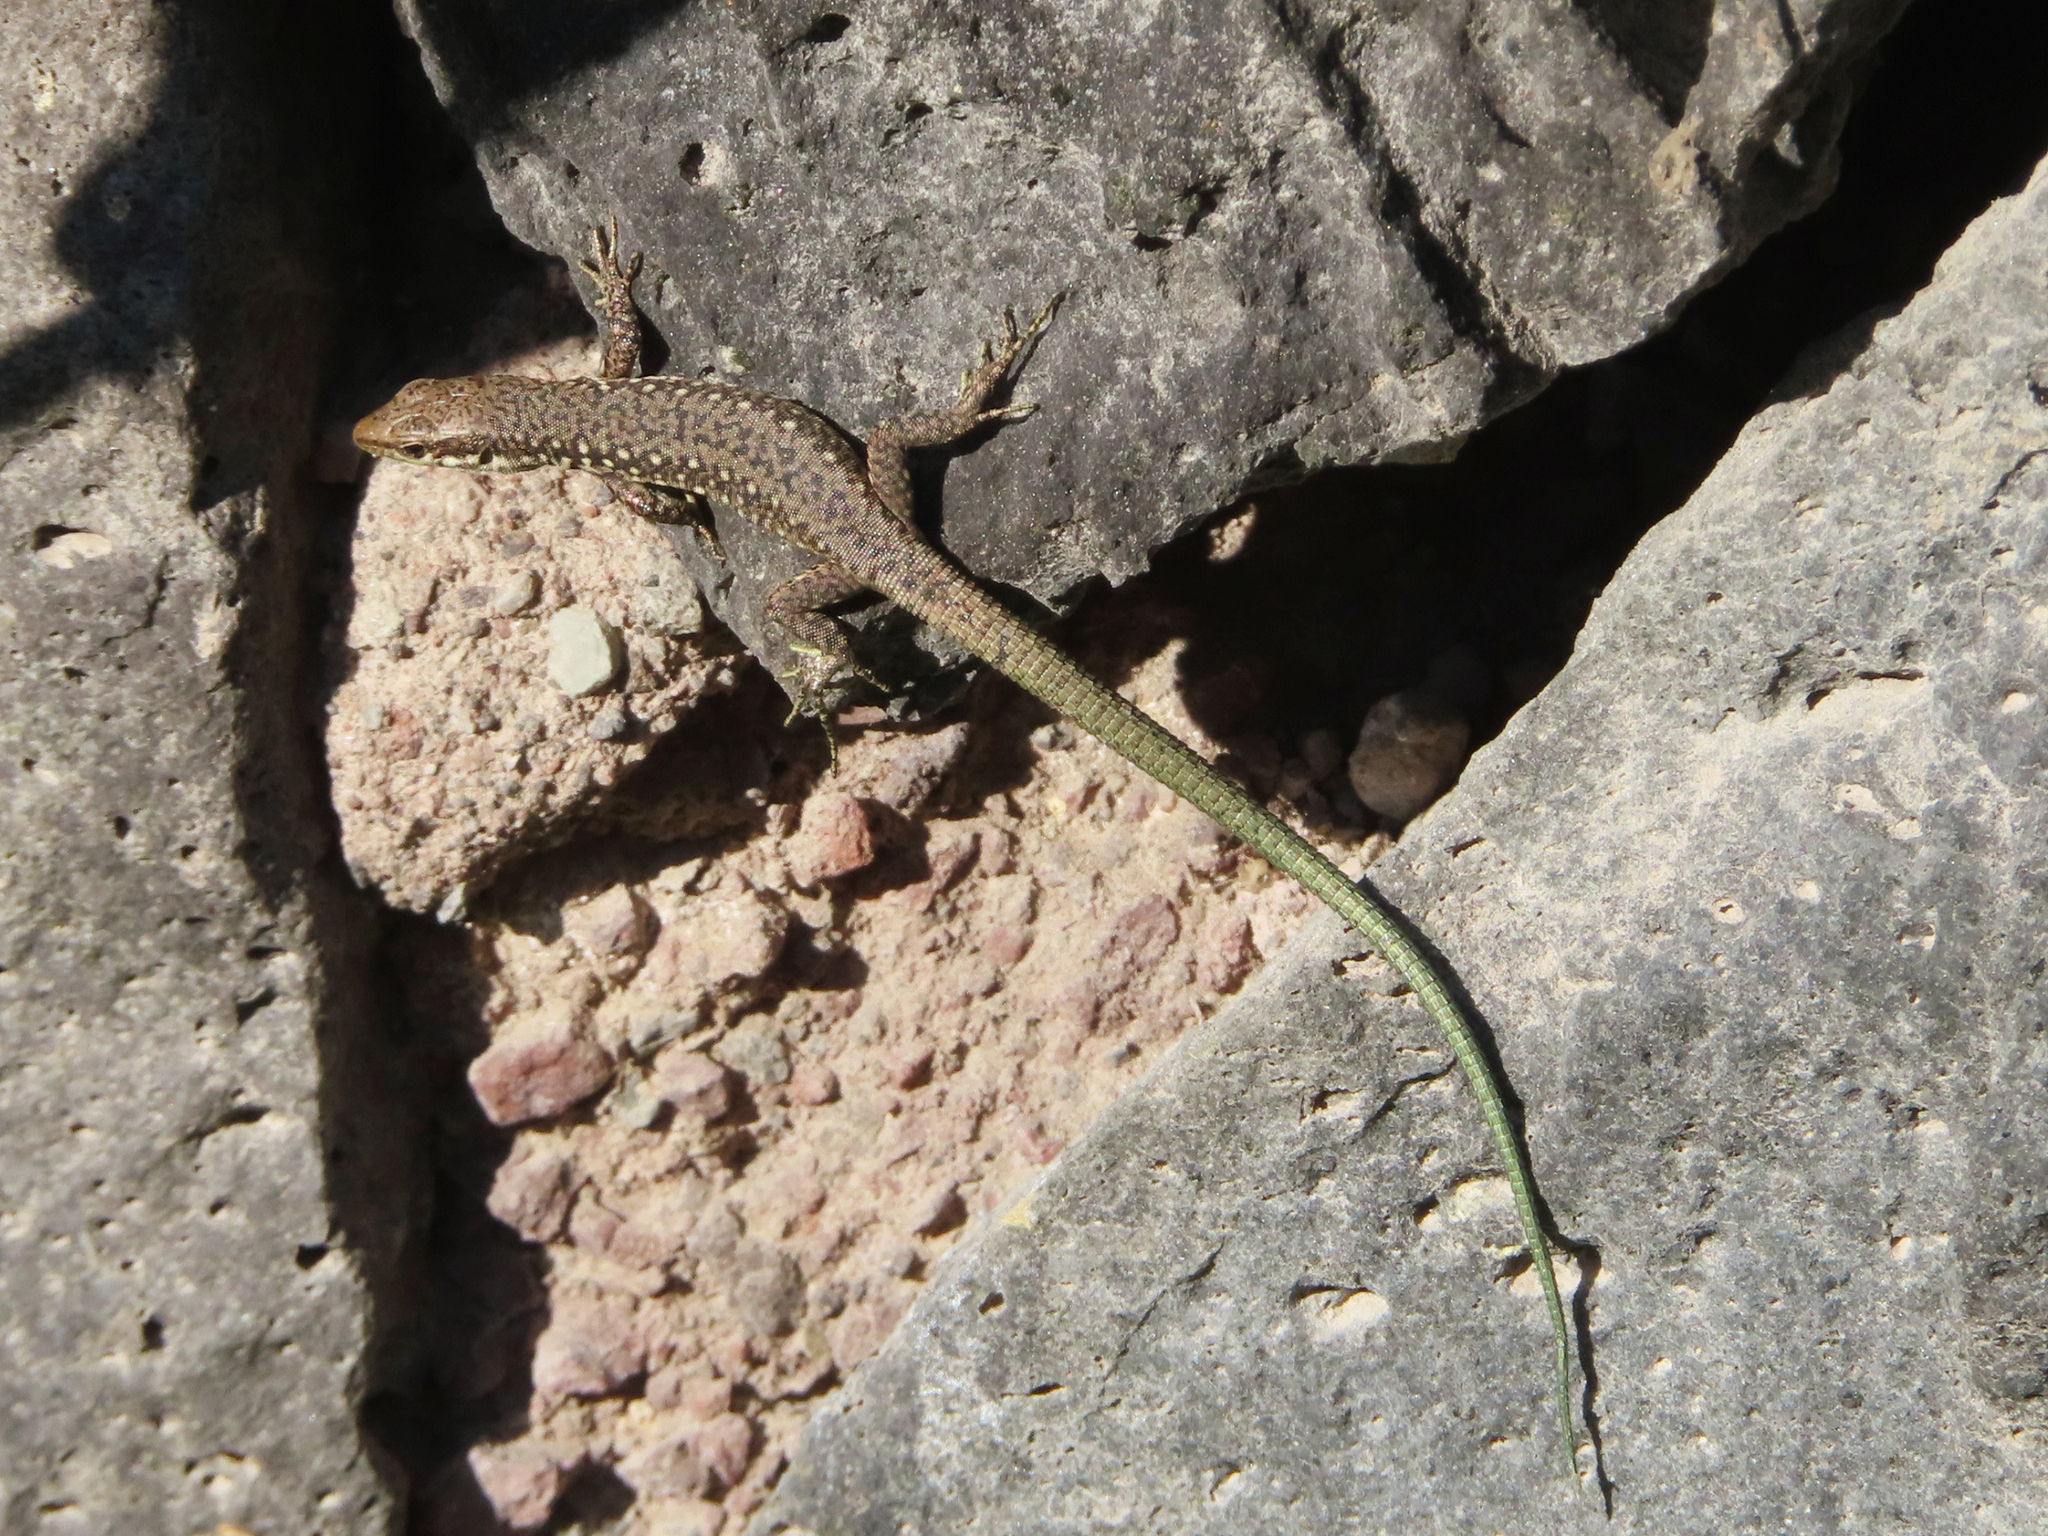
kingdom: Animalia
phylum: Chordata
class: Squamata
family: Lacertidae
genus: Darevskia
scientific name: Darevskia raddei
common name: Radde's lizard
